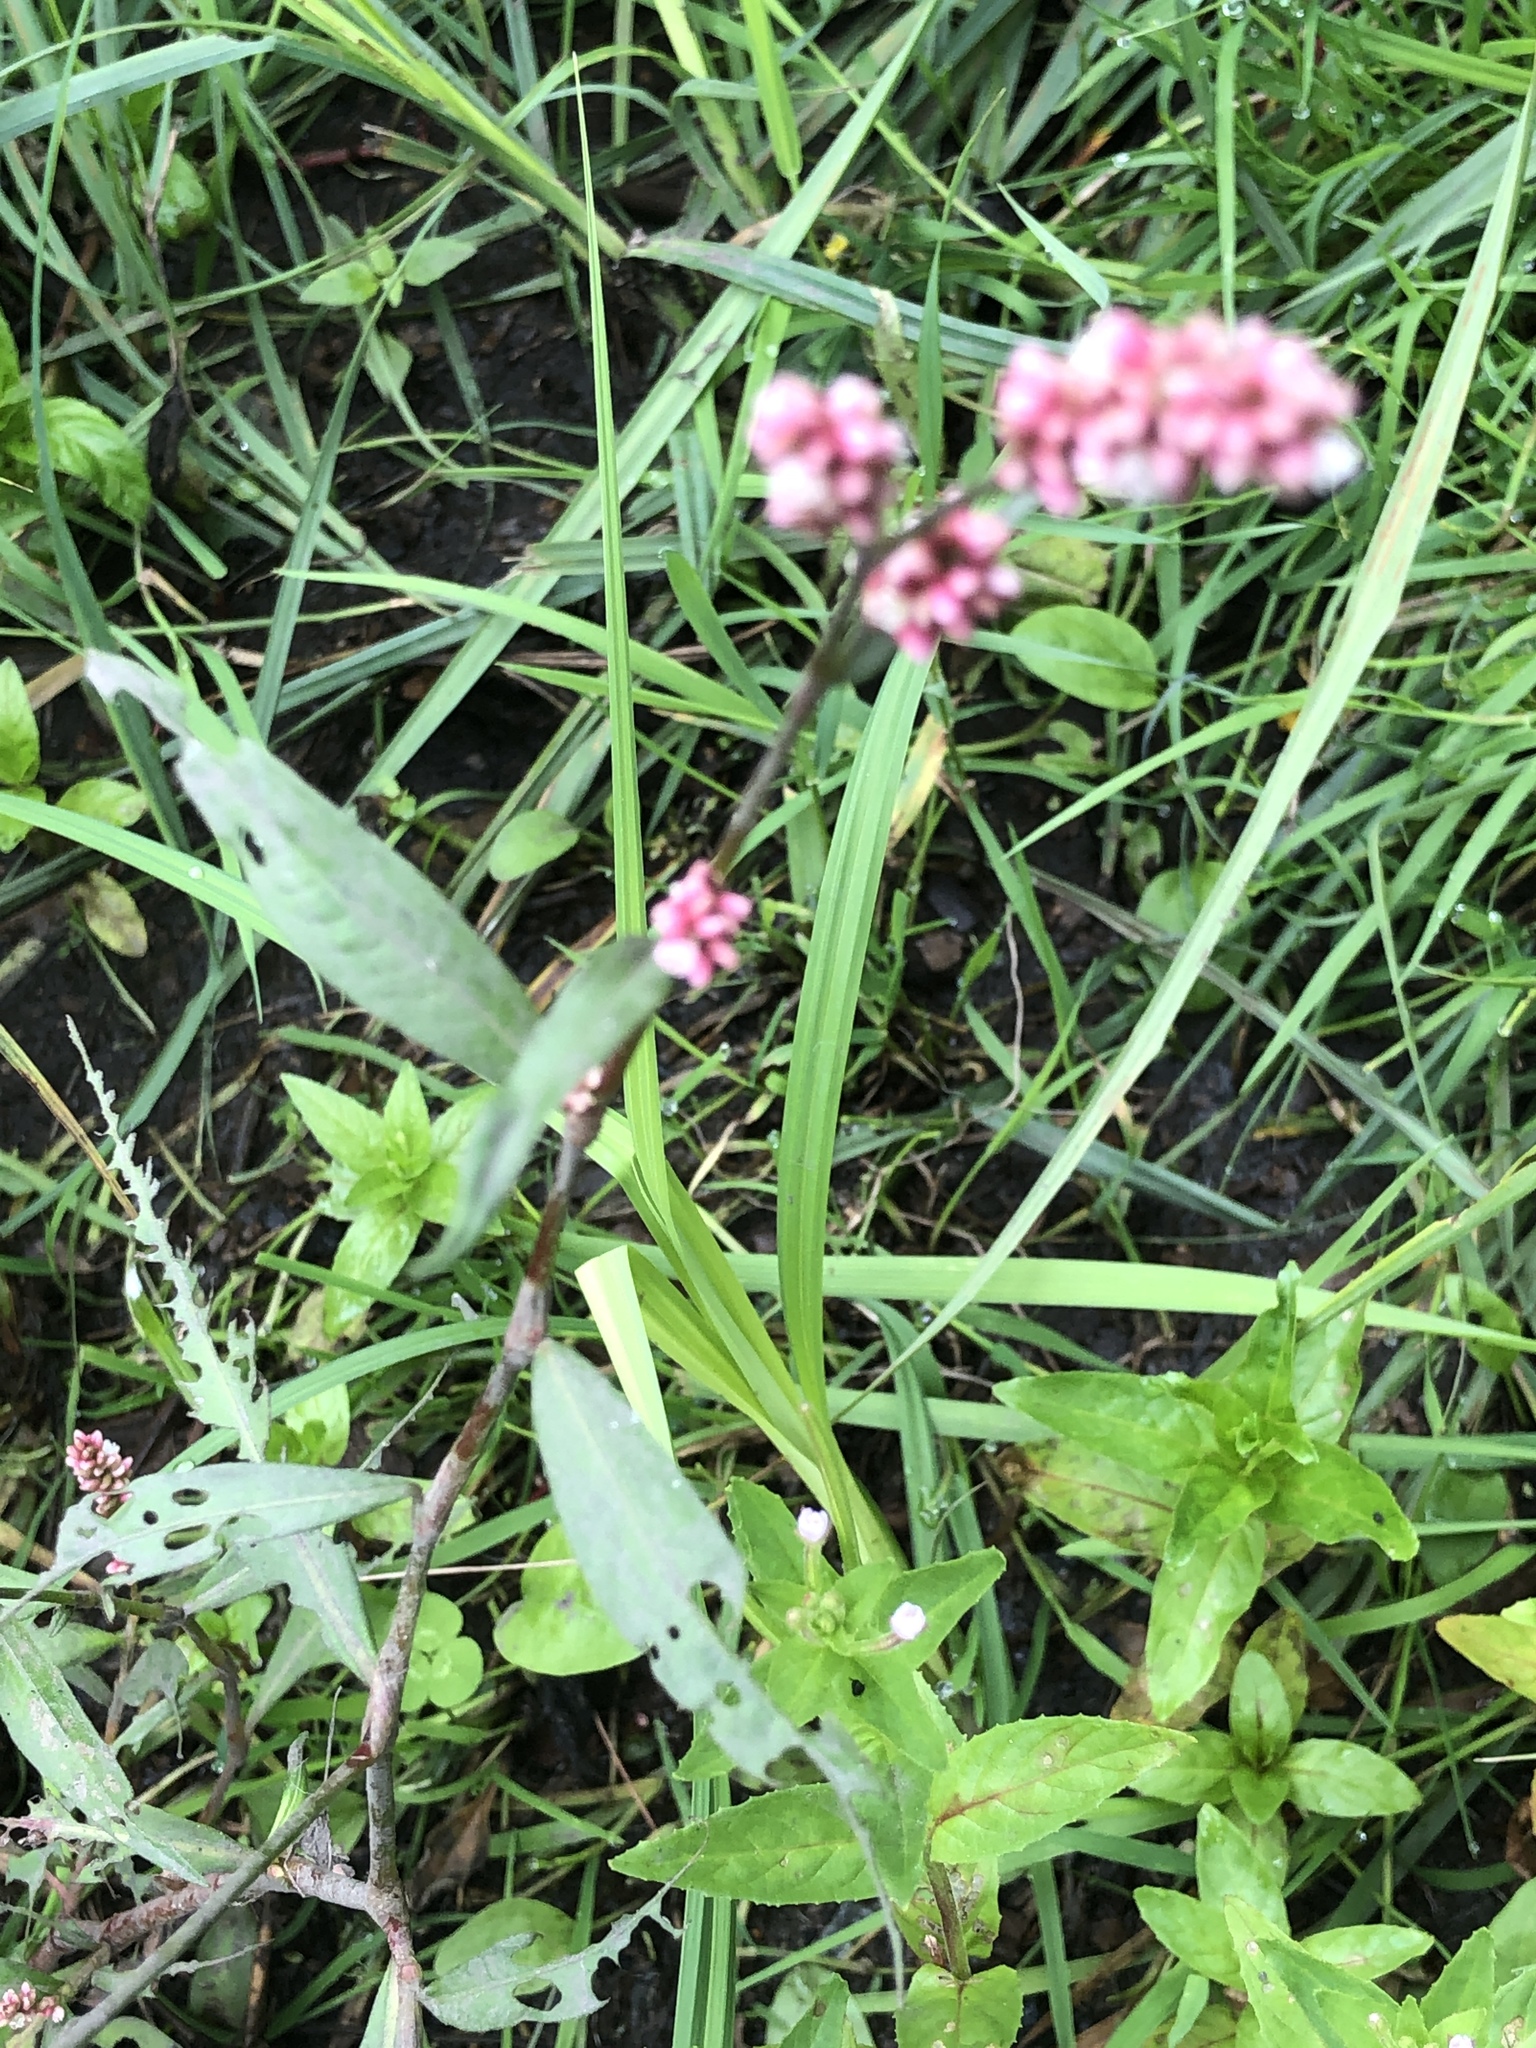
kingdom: Plantae
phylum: Tracheophyta
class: Magnoliopsida
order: Caryophyllales
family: Polygonaceae
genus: Persicaria
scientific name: Persicaria maculosa
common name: Redshank
